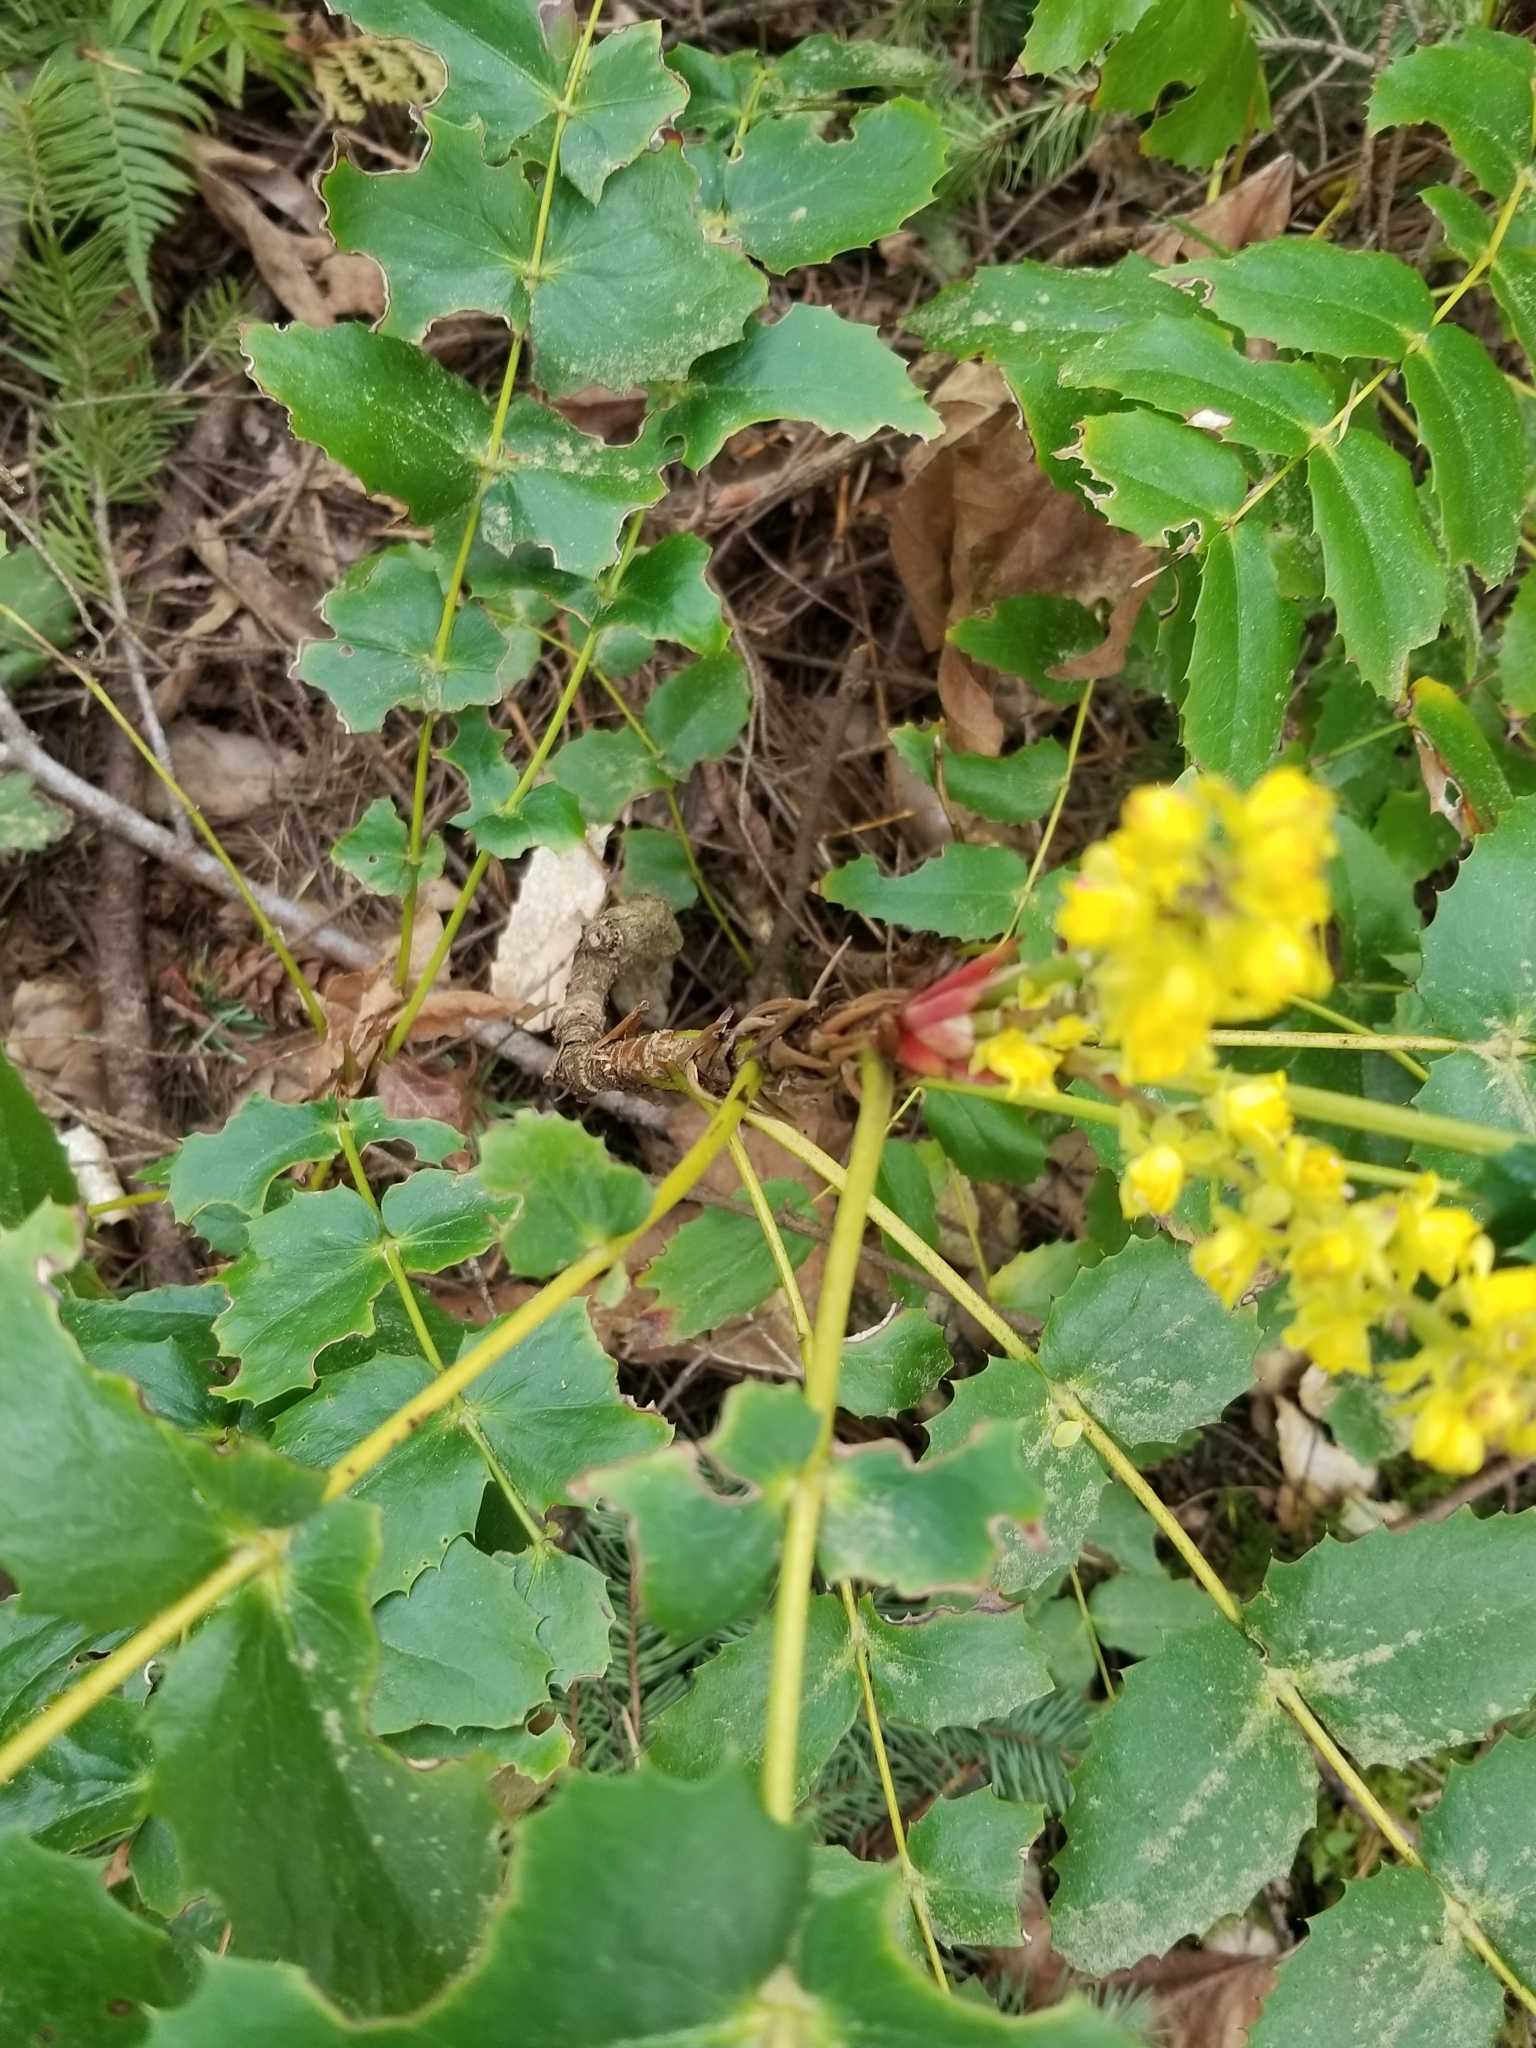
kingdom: Plantae
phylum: Tracheophyta
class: Magnoliopsida
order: Ranunculales
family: Berberidaceae
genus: Mahonia
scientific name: Mahonia nervosa
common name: Cascade oregon-grape
